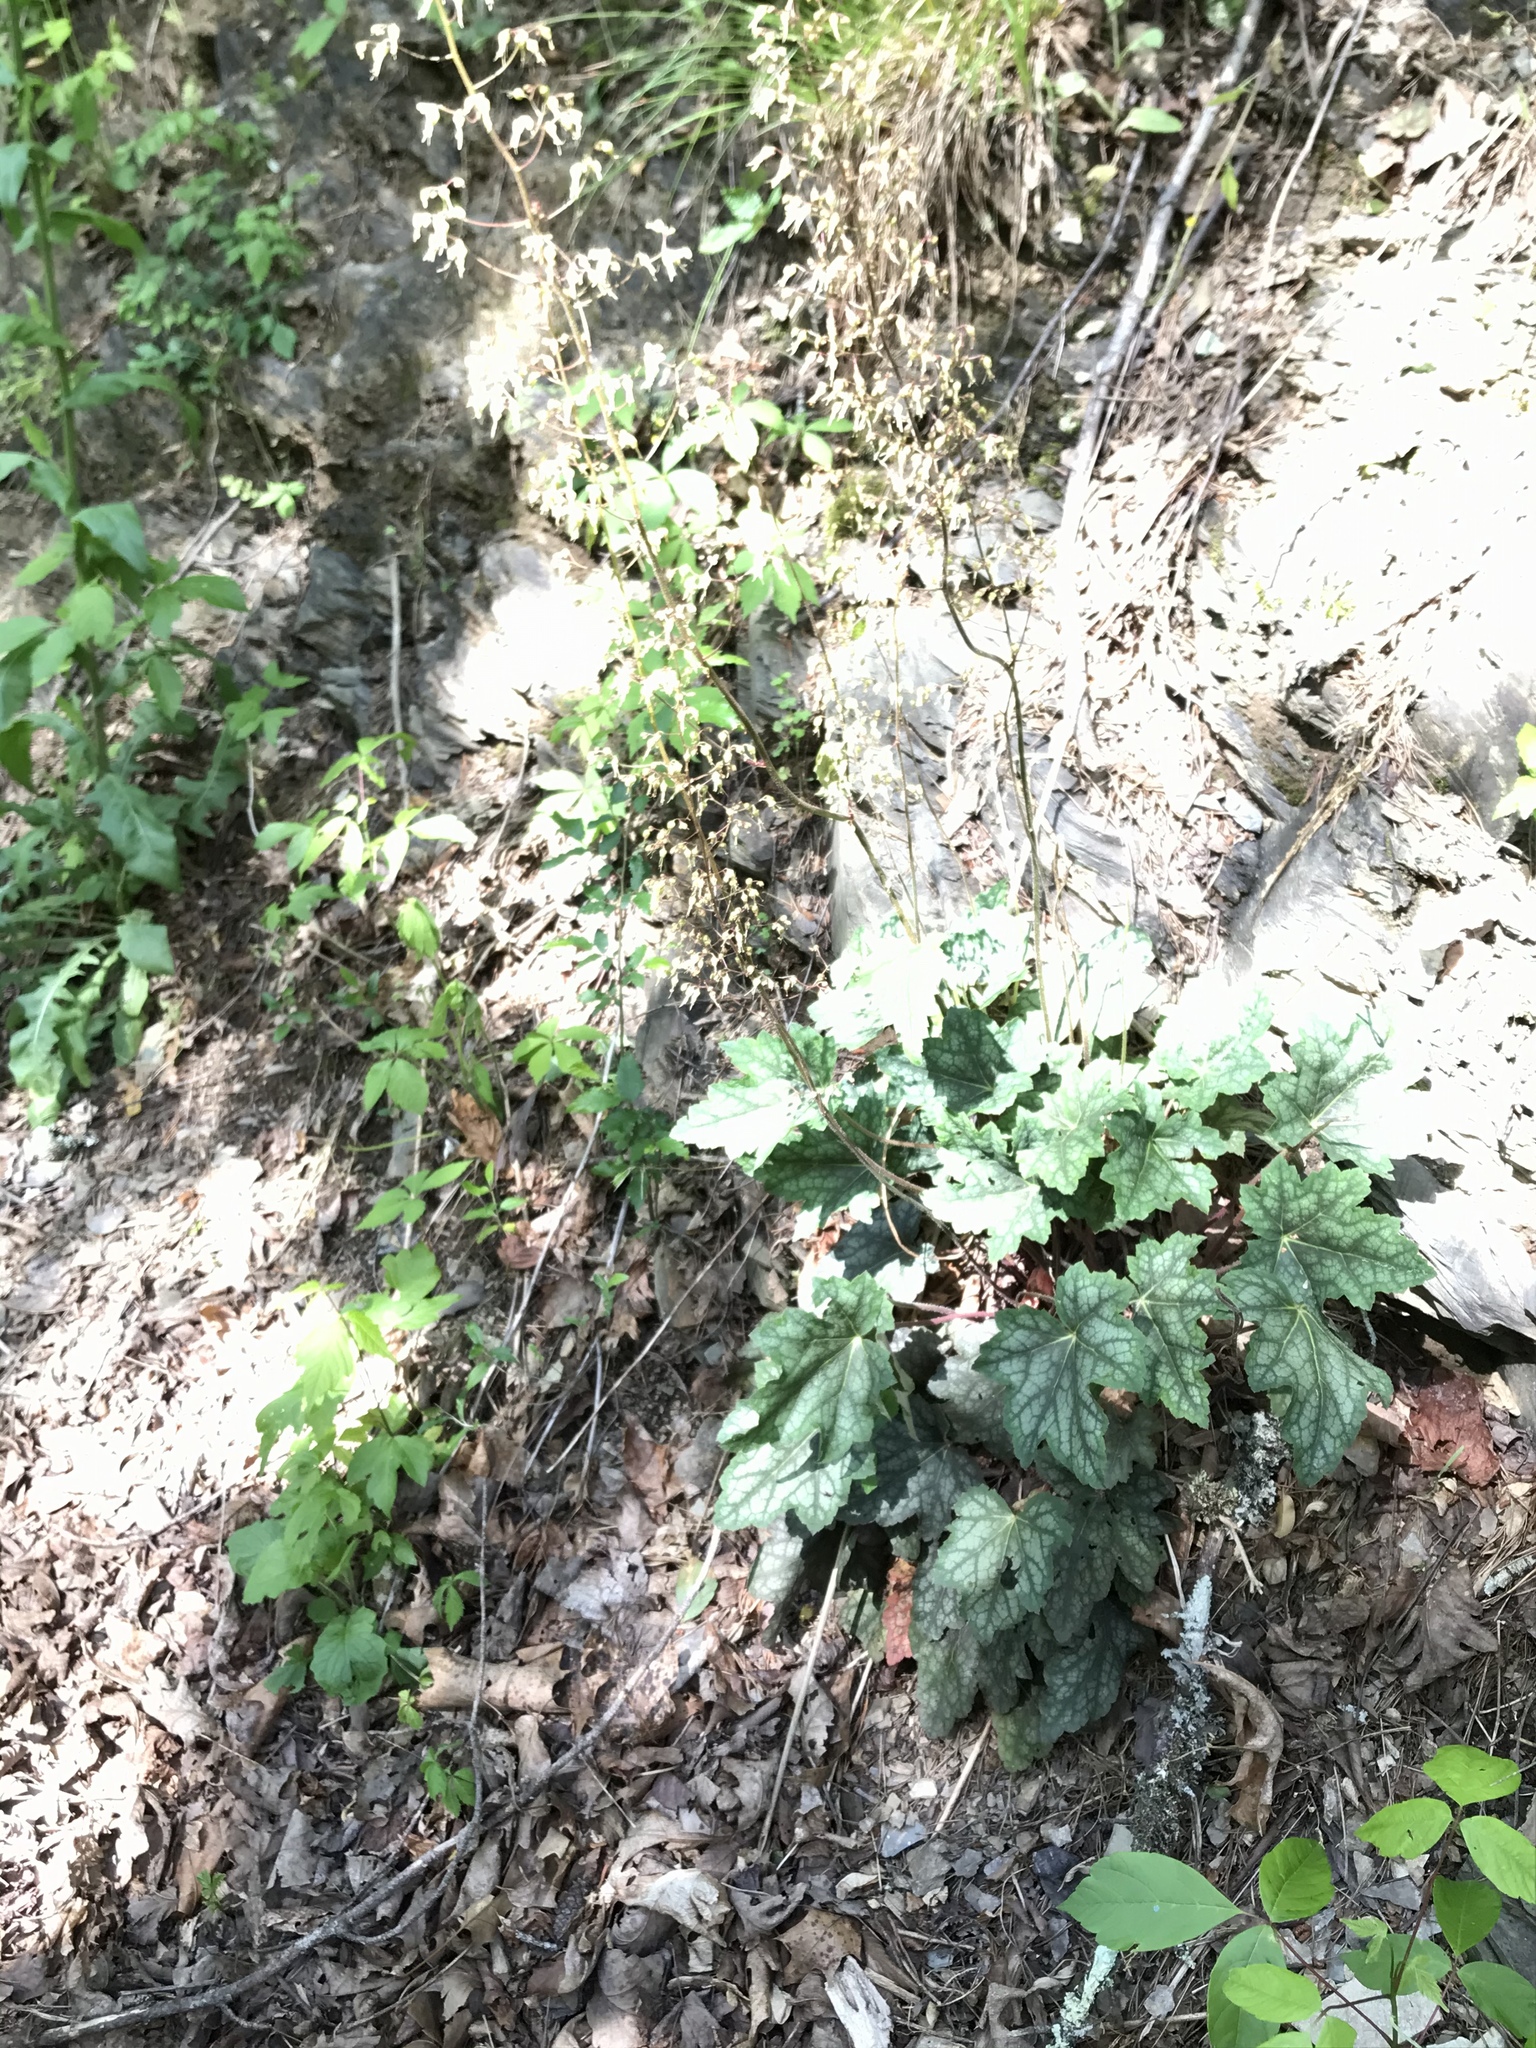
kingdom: Plantae
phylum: Tracheophyta
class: Magnoliopsida
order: Saxifragales
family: Saxifragaceae
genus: Heuchera
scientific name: Heuchera americana
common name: Alumroot
